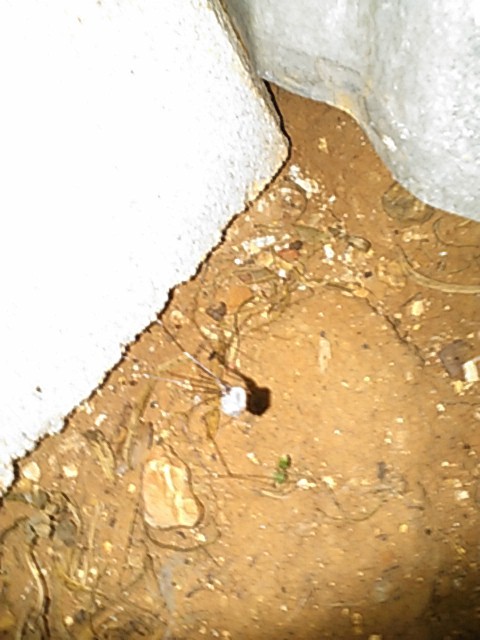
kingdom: Animalia
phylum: Arthropoda
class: Arachnida
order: Araneae
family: Pholcidae
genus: Pholcus
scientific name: Pholcus phalangioides
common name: Longbodied cellar spider
